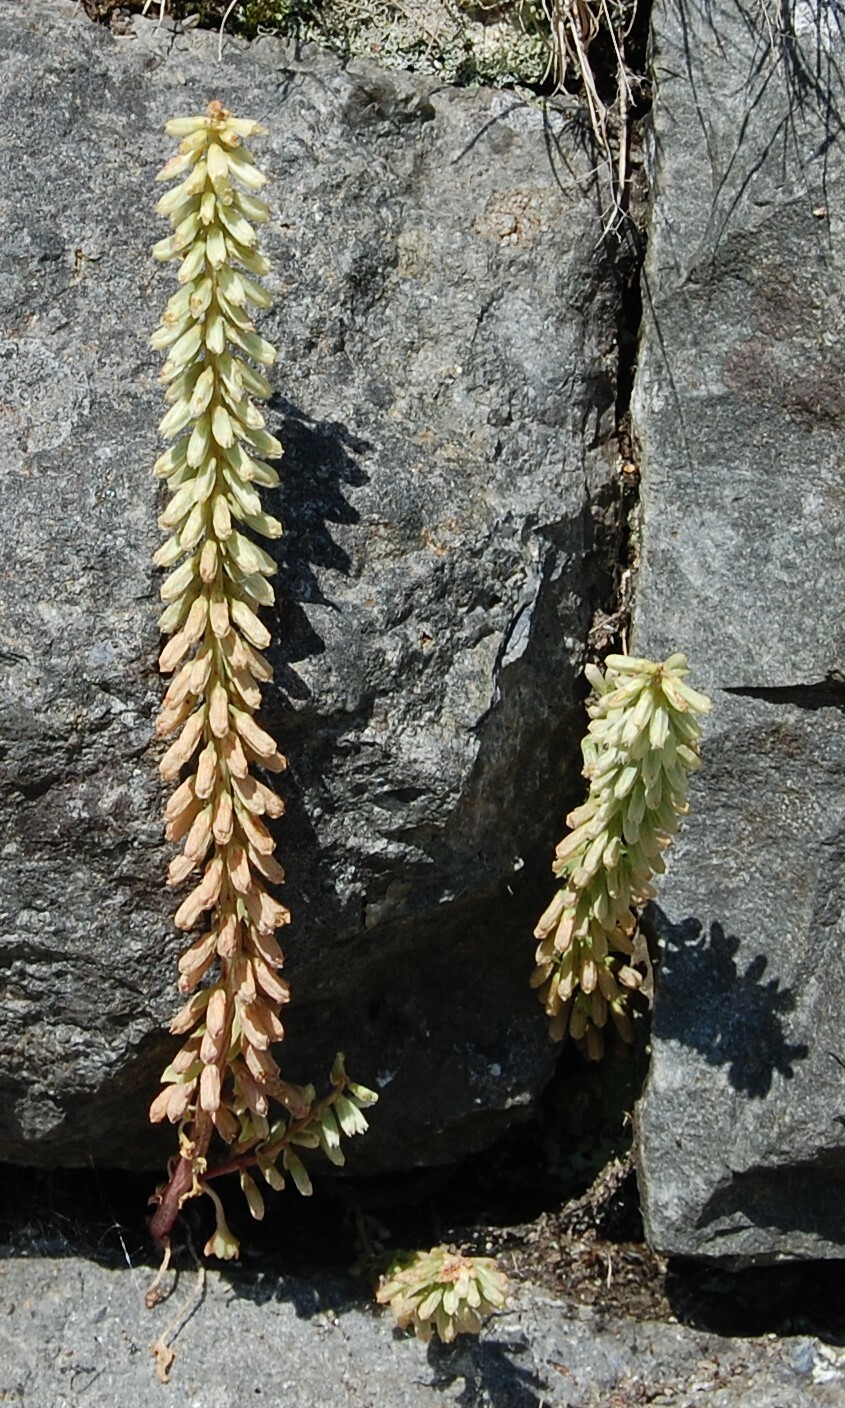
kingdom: Plantae
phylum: Tracheophyta
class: Magnoliopsida
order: Saxifragales
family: Crassulaceae
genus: Umbilicus
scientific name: Umbilicus rupestris
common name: Navelwort
